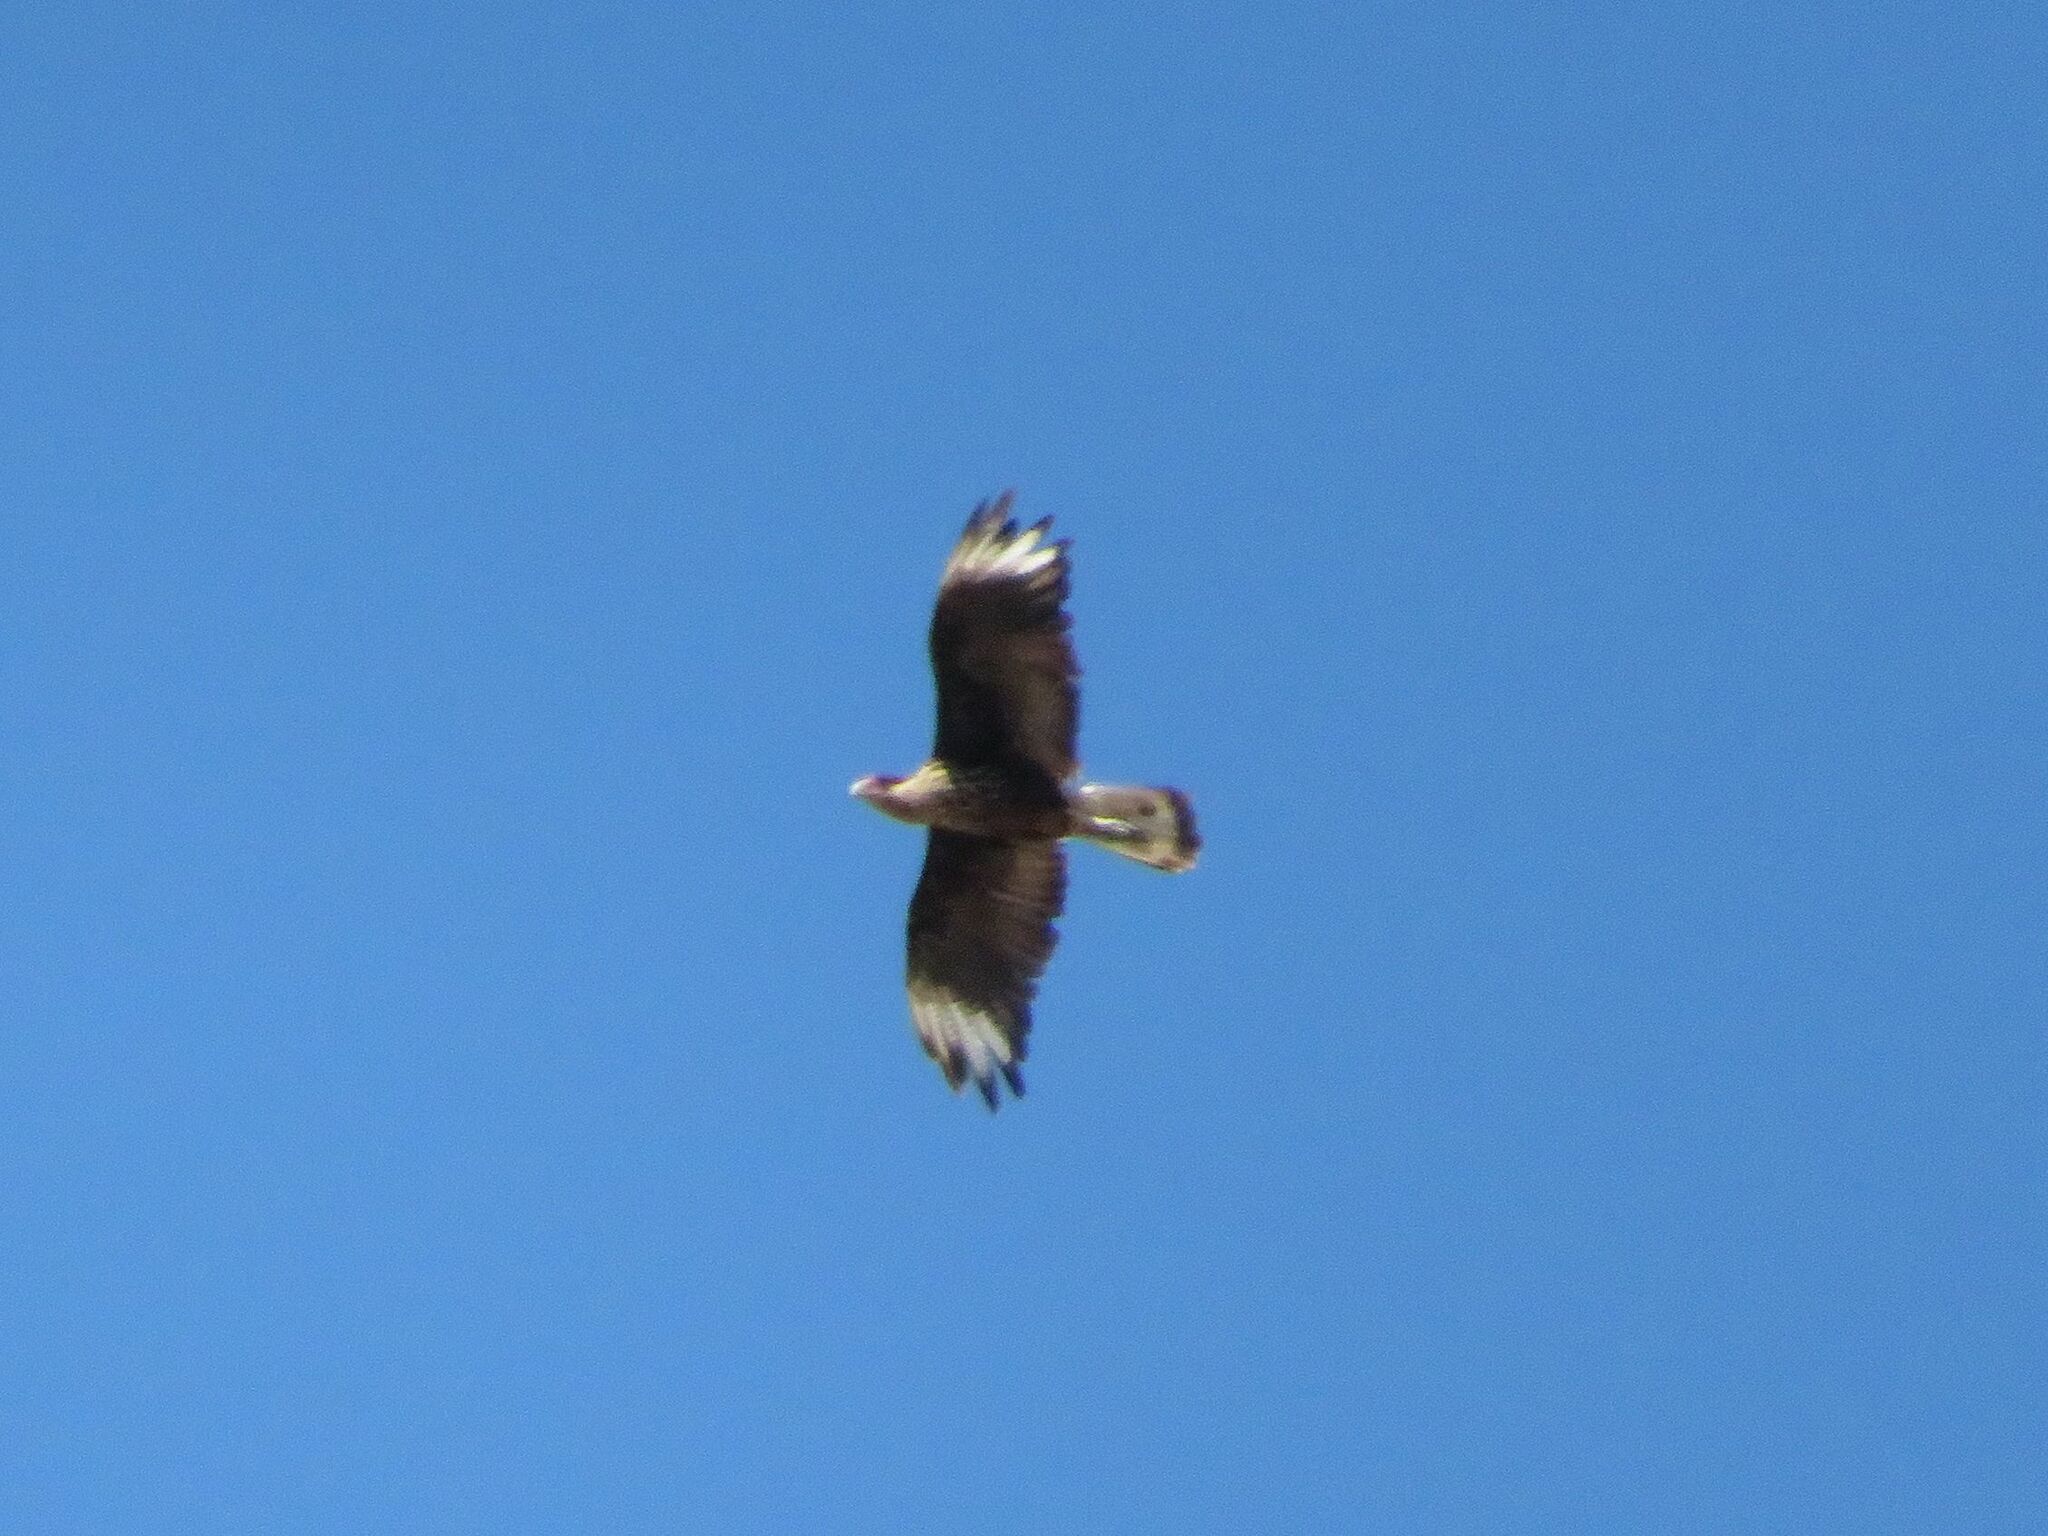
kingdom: Animalia
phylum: Chordata
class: Aves
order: Falconiformes
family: Falconidae
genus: Caracara
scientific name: Caracara plancus
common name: Southern caracara
